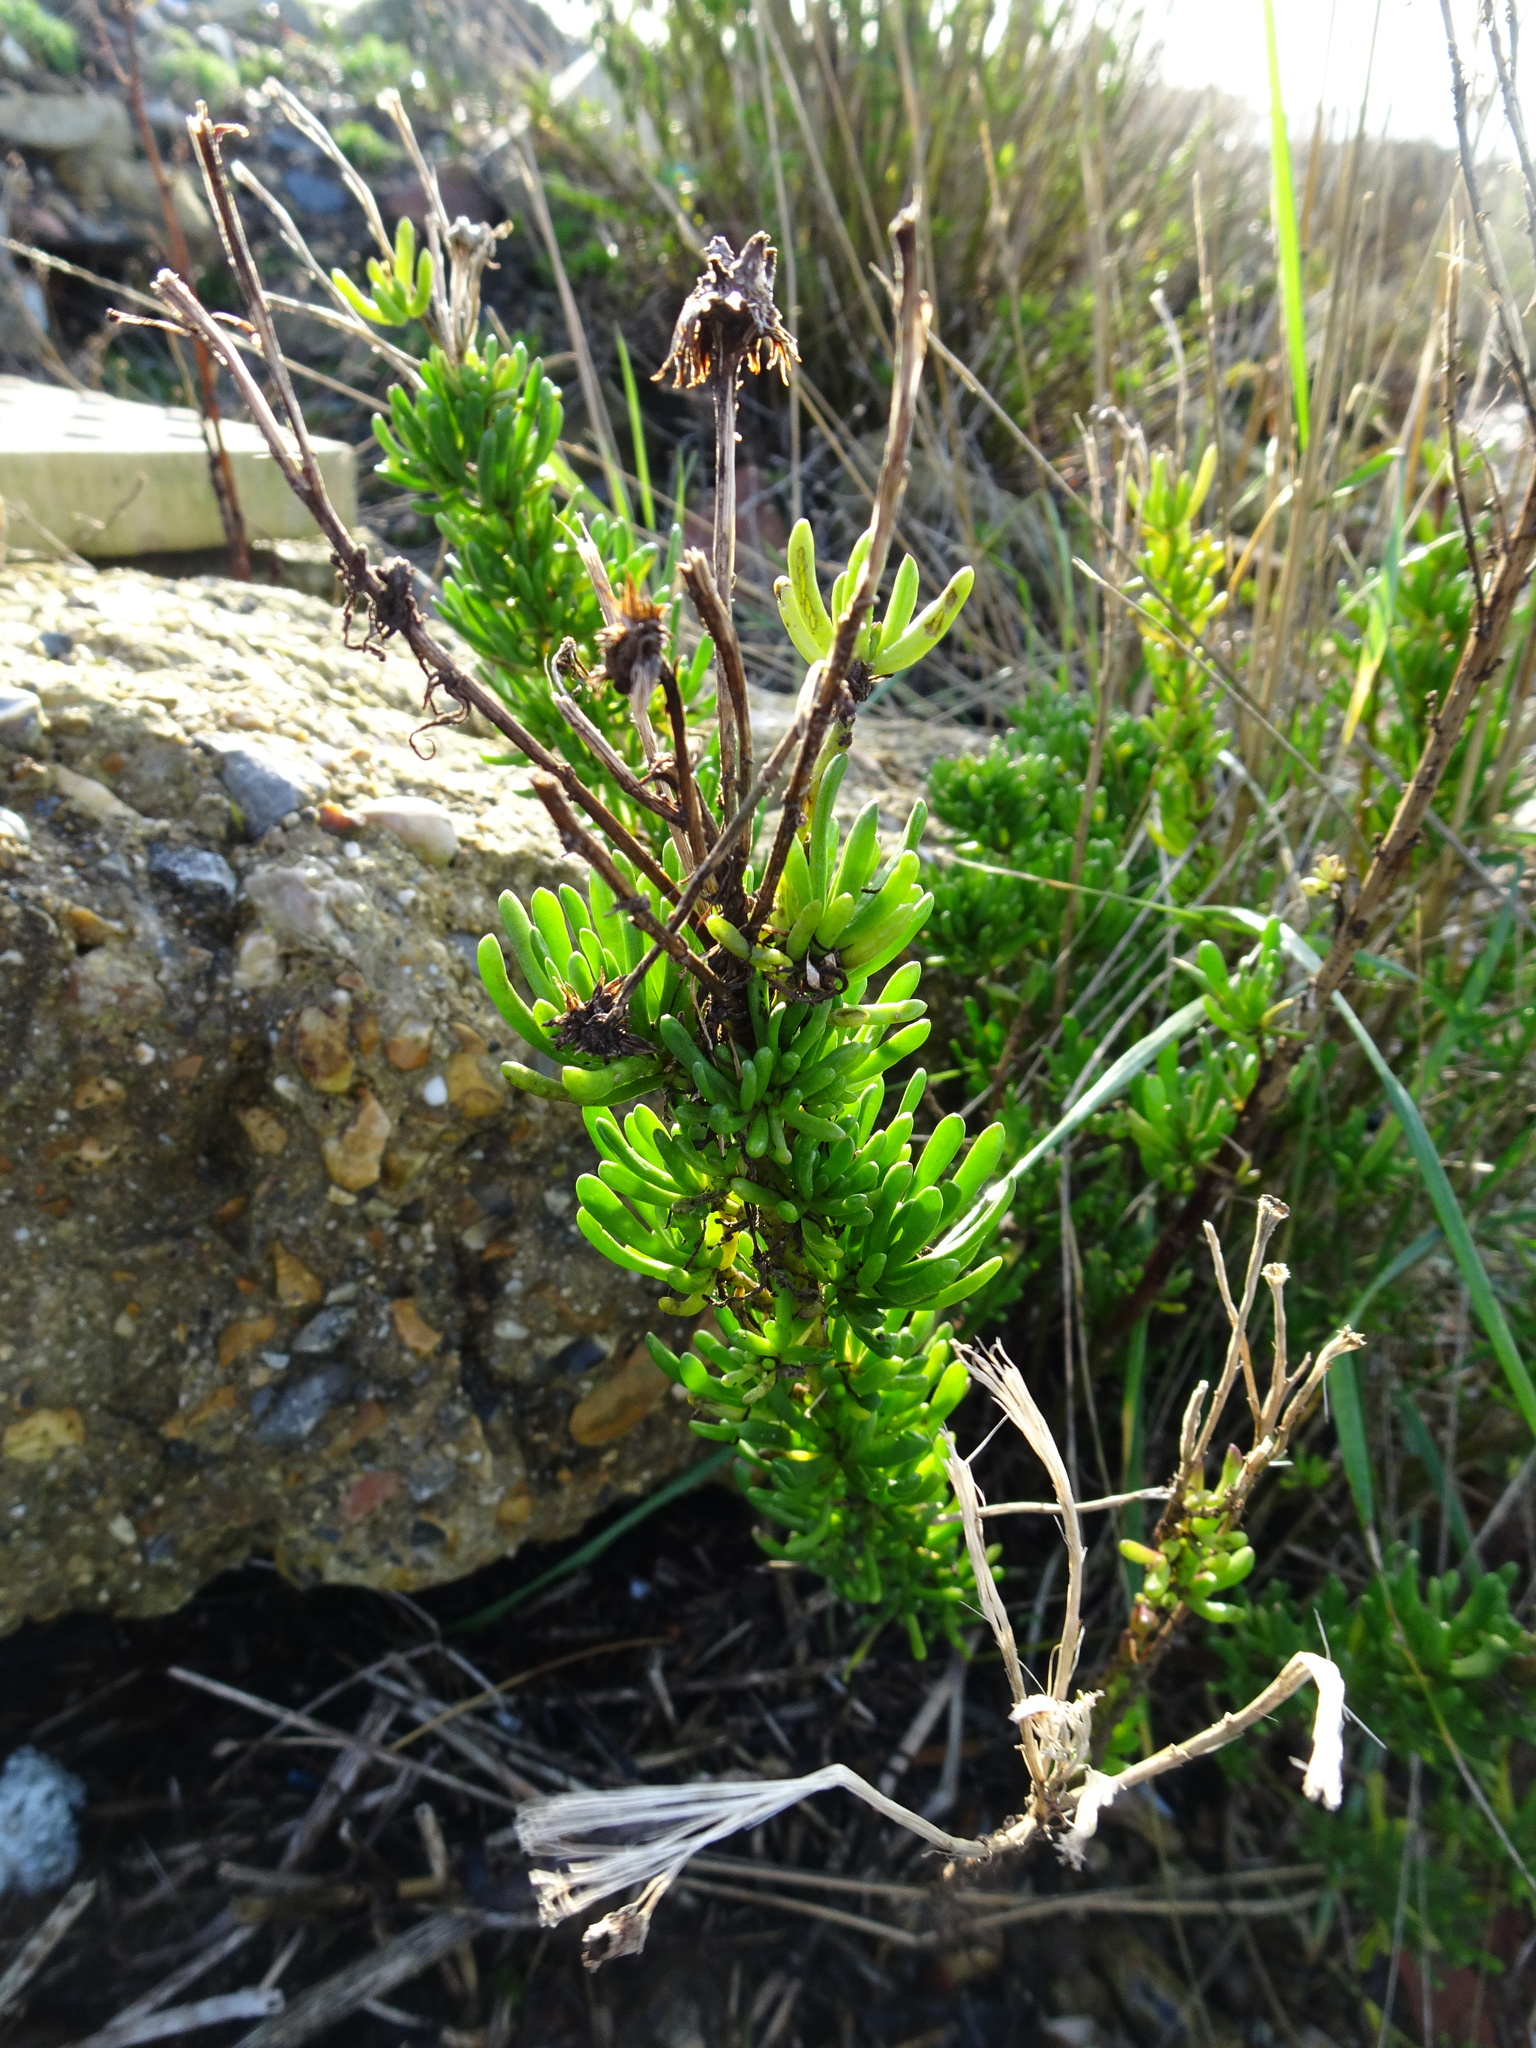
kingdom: Plantae
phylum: Tracheophyta
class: Magnoliopsida
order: Asterales
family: Asteraceae
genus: Limbarda
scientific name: Limbarda crithmoides
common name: Golden samphire
